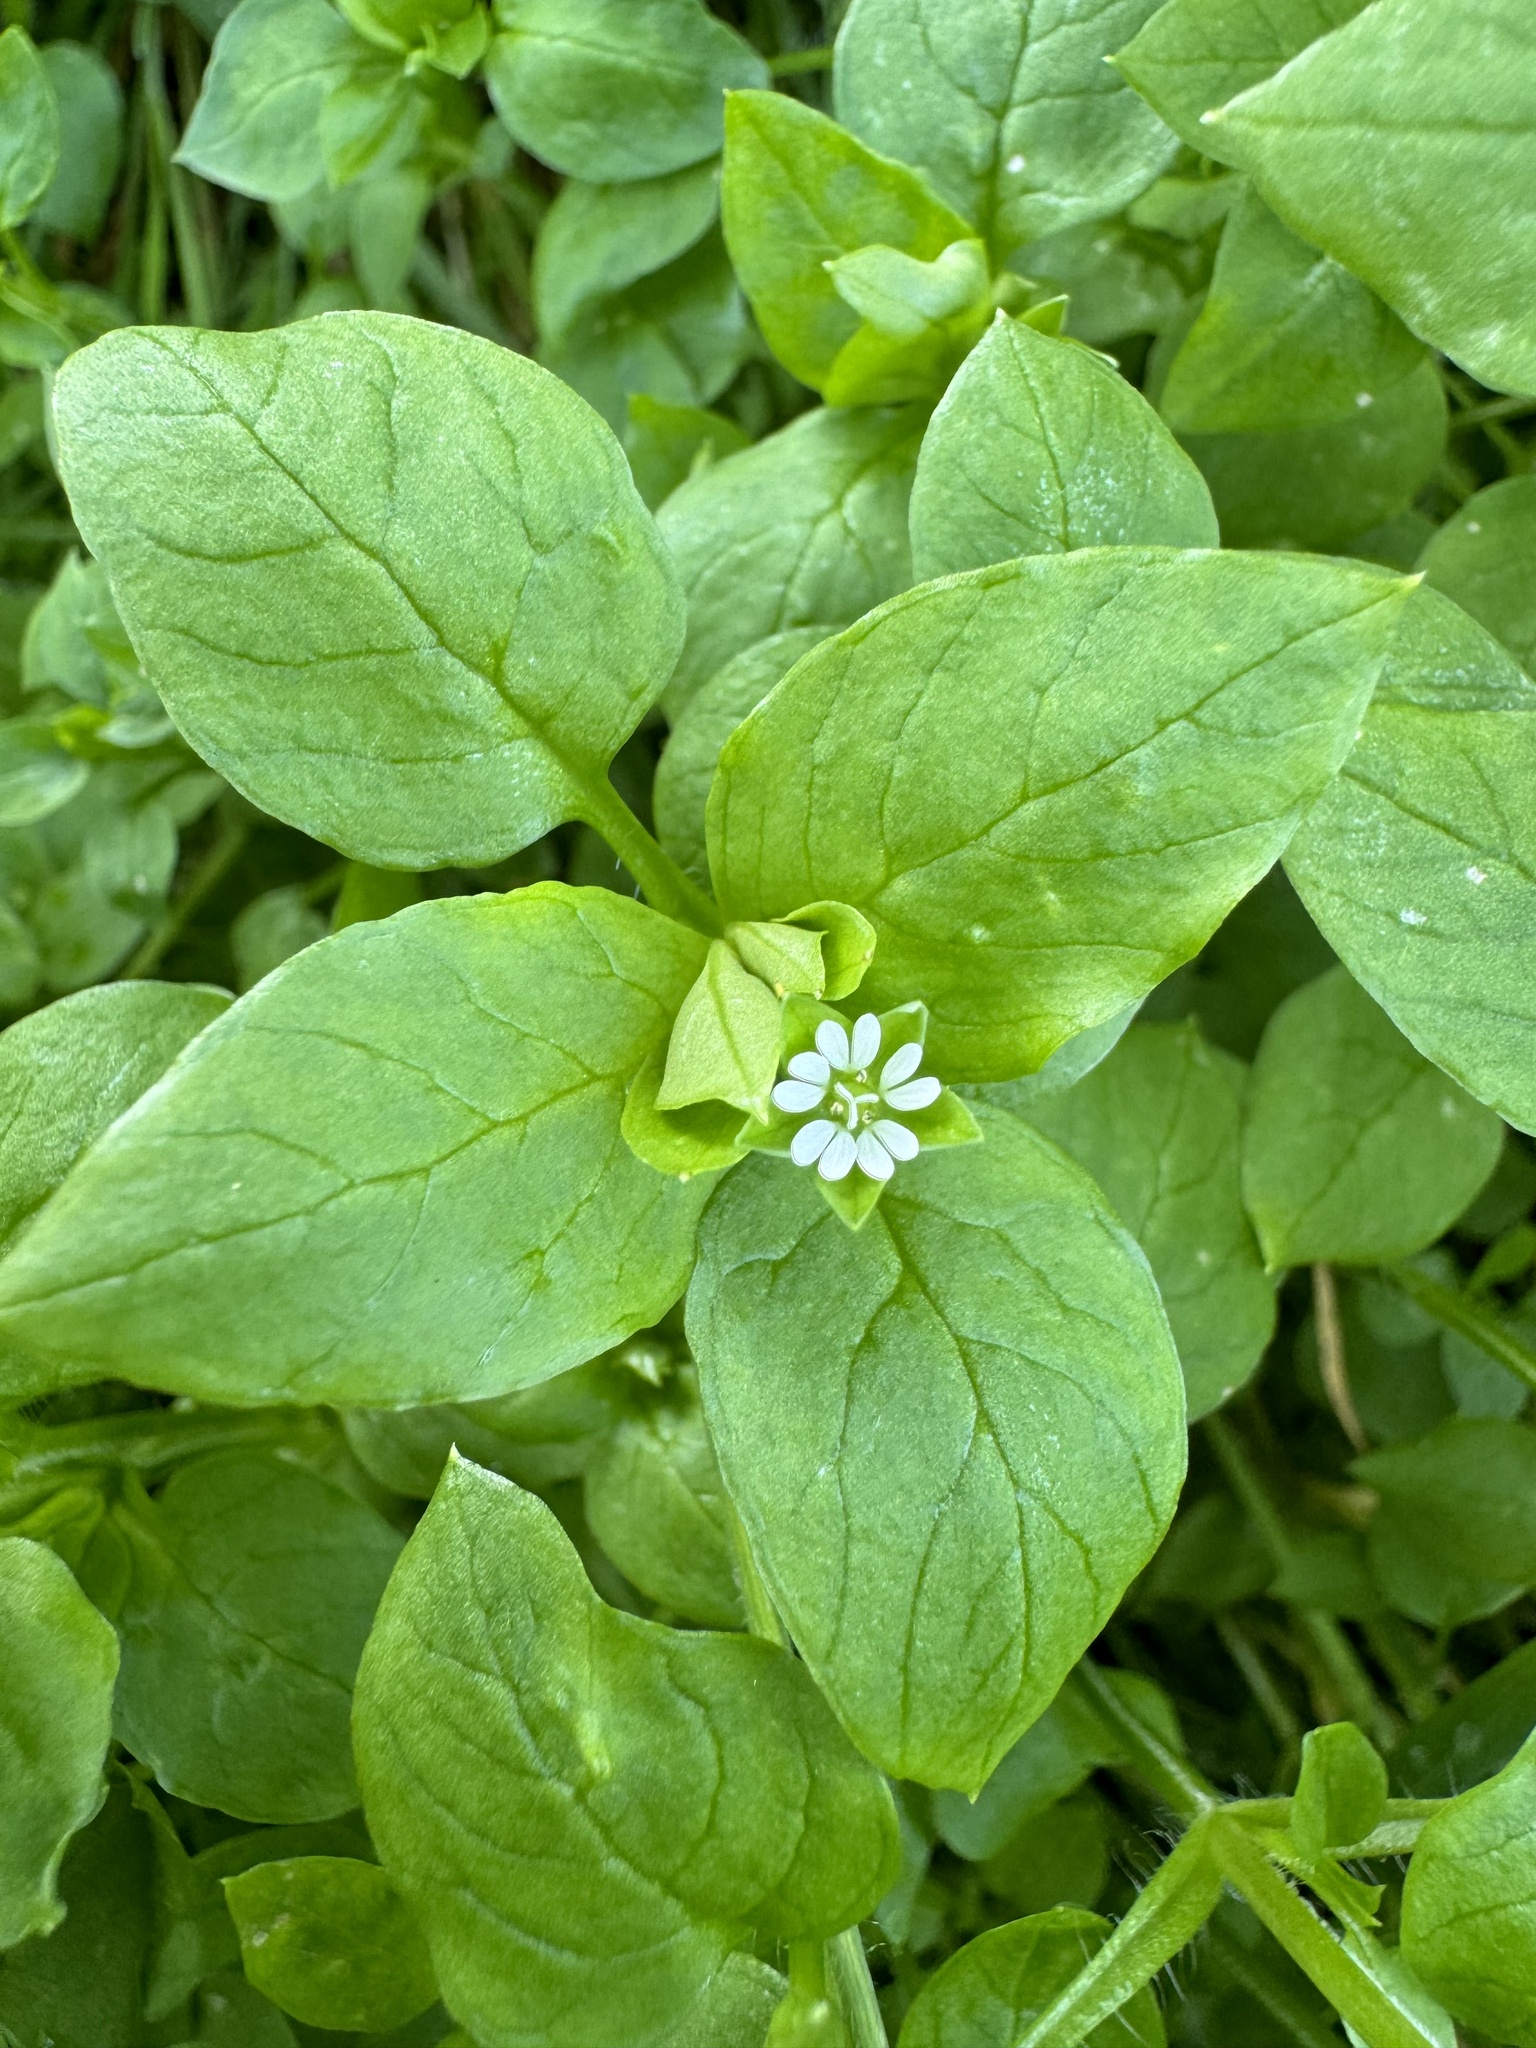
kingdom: Plantae
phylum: Tracheophyta
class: Magnoliopsida
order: Caryophyllales
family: Caryophyllaceae
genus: Stellaria
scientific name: Stellaria media
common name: Common chickweed
